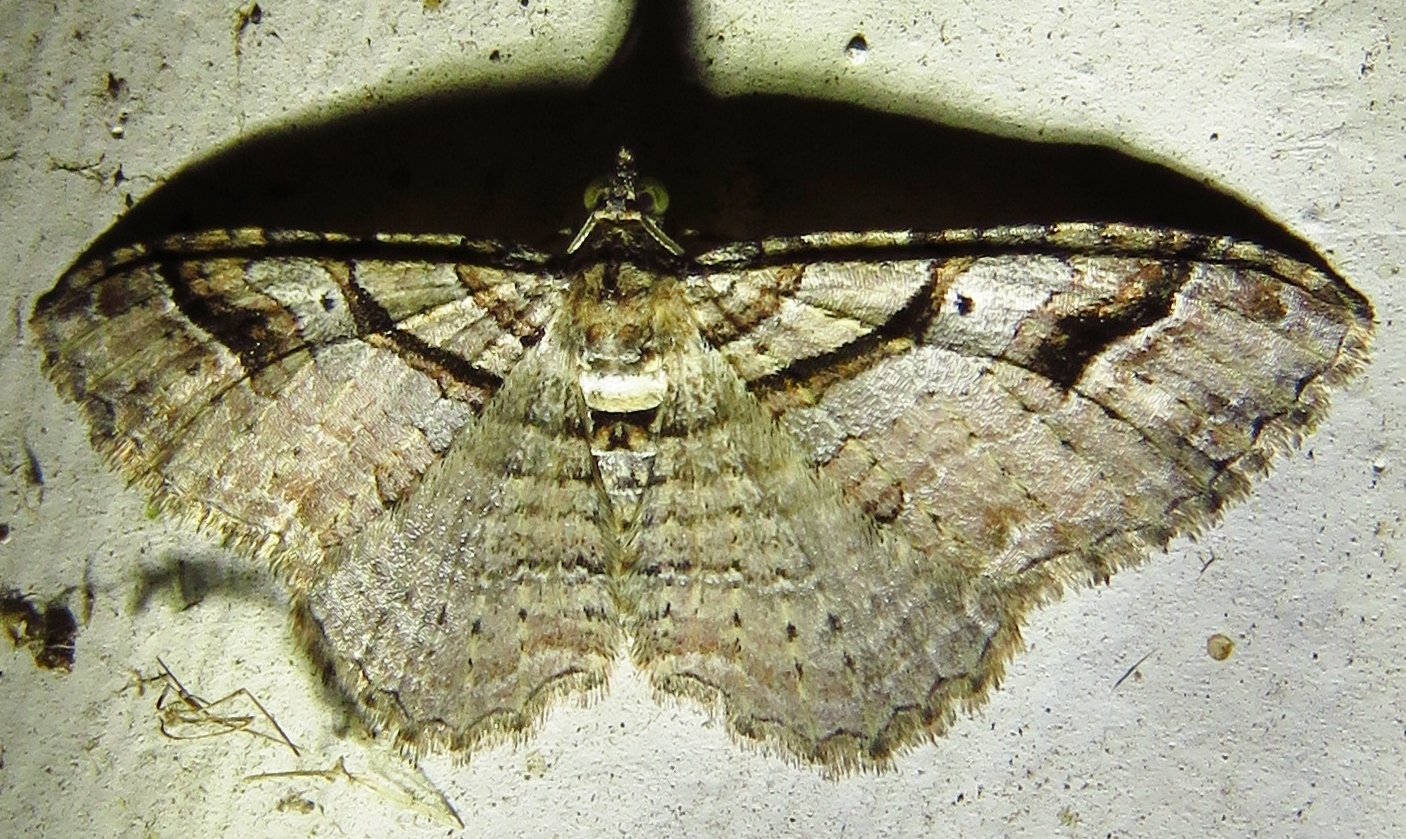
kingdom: Animalia
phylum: Arthropoda
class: Insecta
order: Lepidoptera
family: Geometridae
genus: Costaconvexa
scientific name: Costaconvexa centrostrigaria
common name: Bent-line carpet
